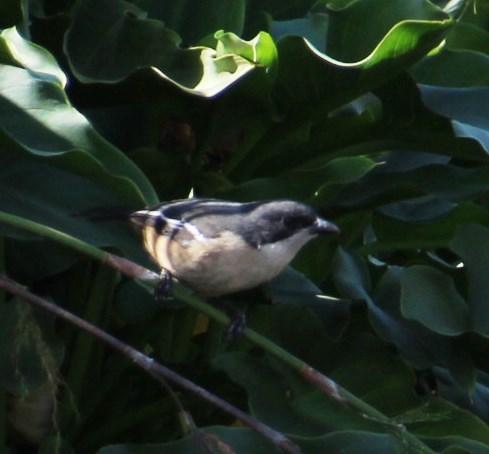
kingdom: Animalia
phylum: Chordata
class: Aves
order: Passeriformes
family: Malaconotidae
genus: Laniarius
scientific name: Laniarius ferrugineus
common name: Southern boubou
